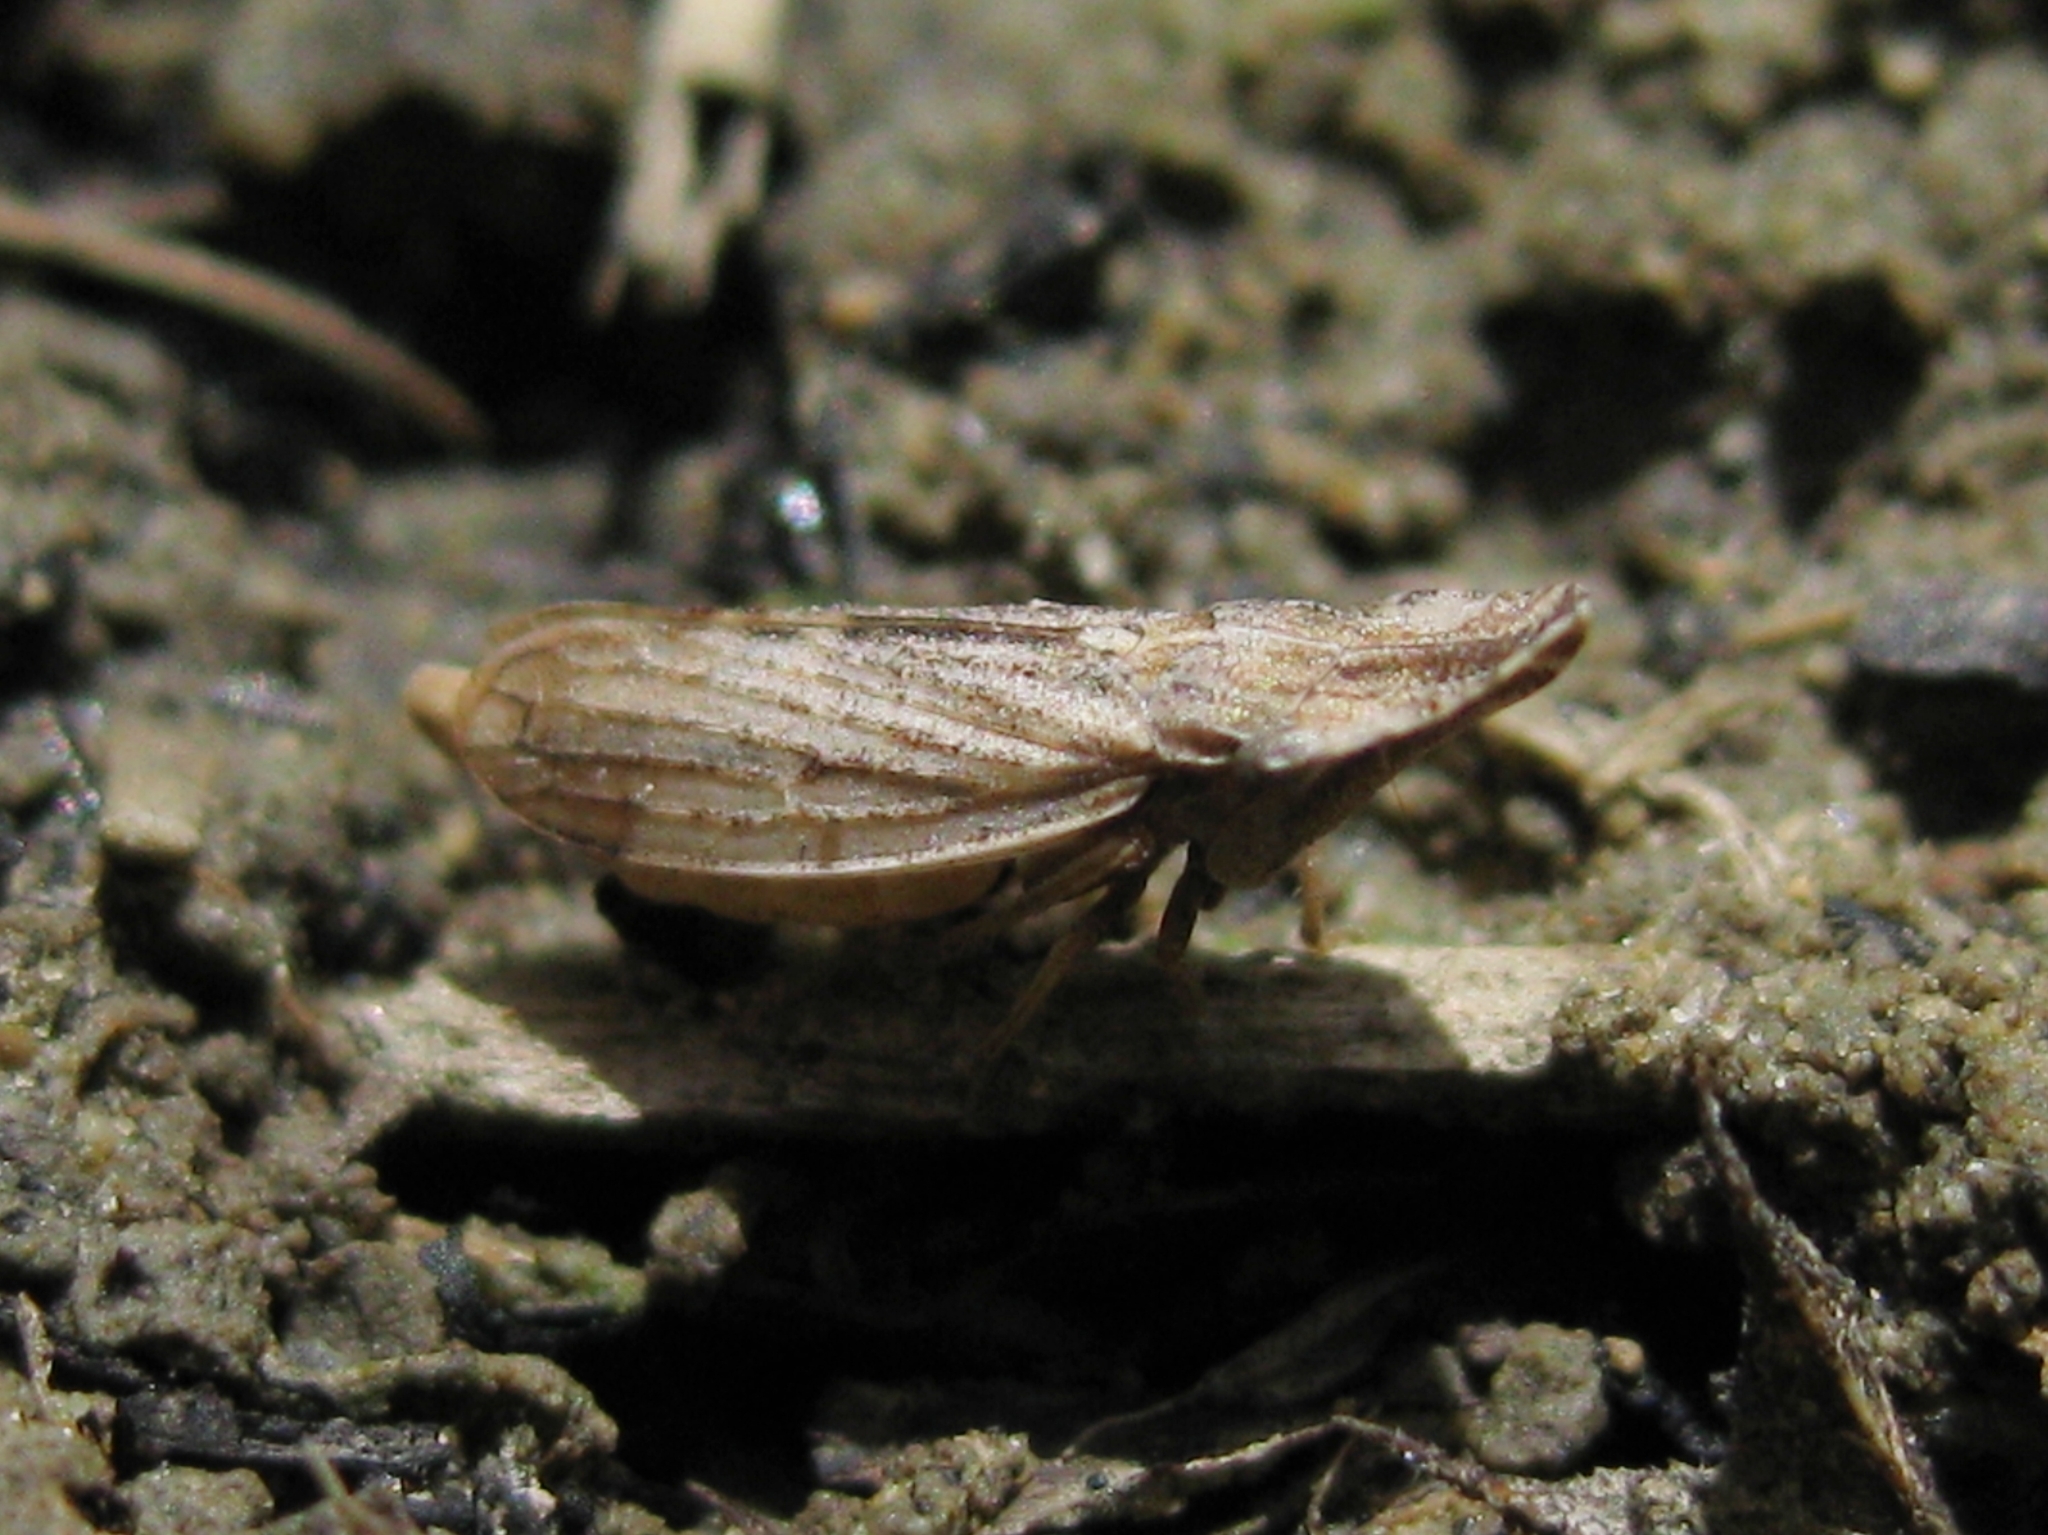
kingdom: Animalia
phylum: Arthropoda
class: Insecta
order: Hemiptera
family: Cicadellidae
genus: Eupelix
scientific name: Eupelix
